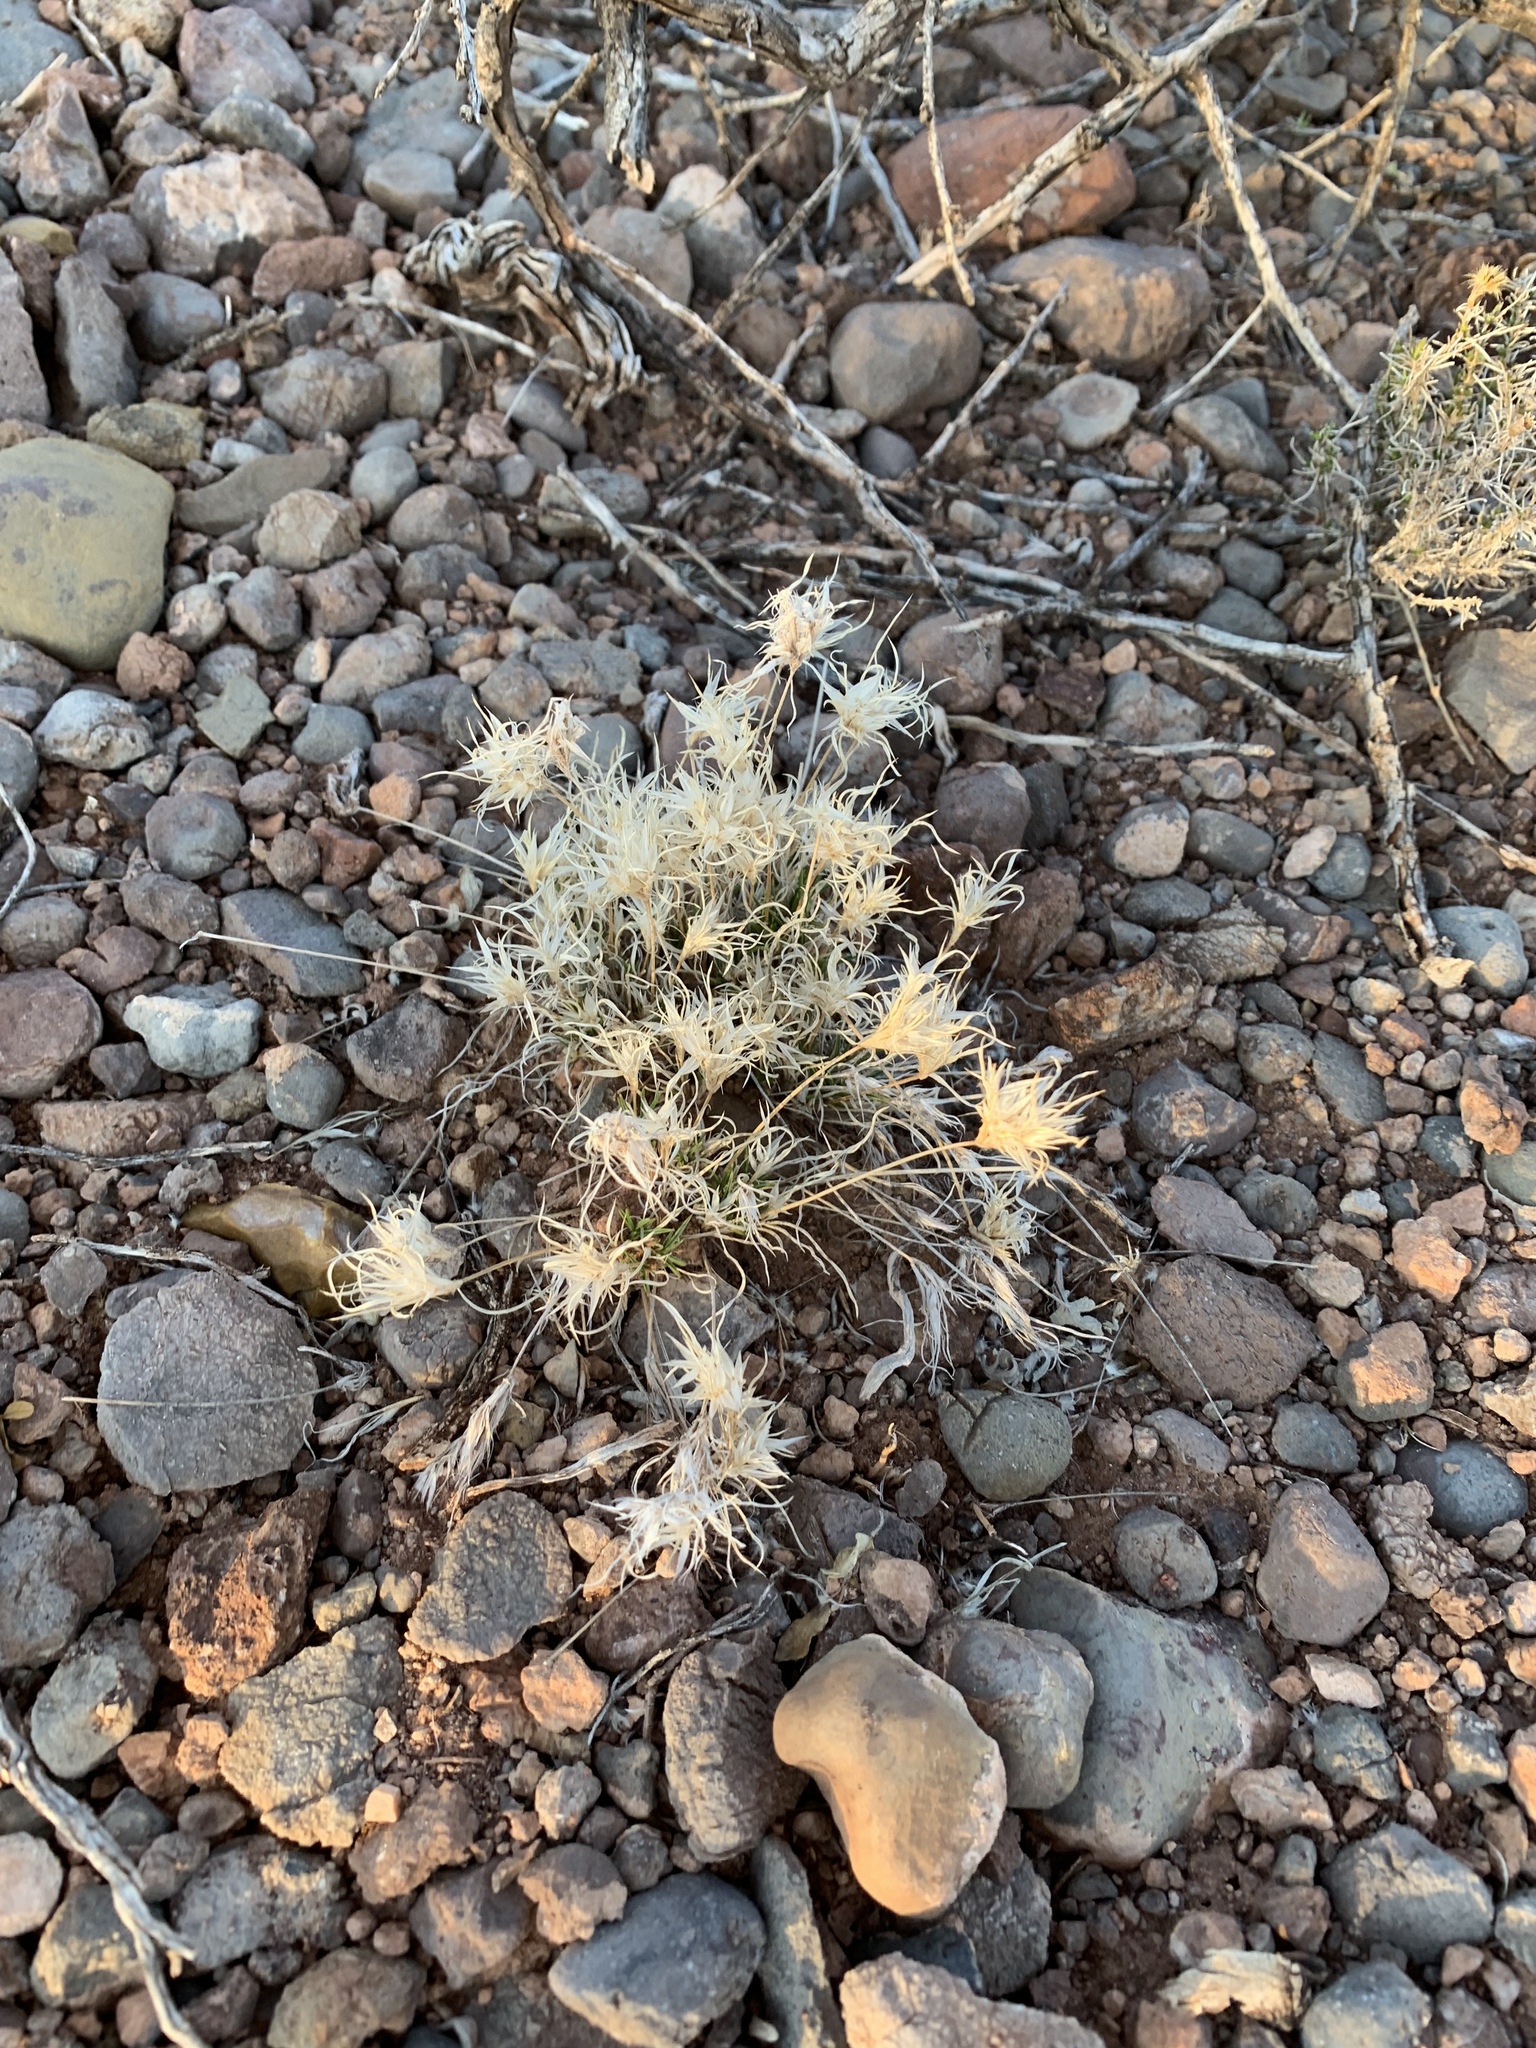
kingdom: Plantae
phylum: Tracheophyta
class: Liliopsida
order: Poales
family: Poaceae
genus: Dasyochloa
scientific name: Dasyochloa pulchella
